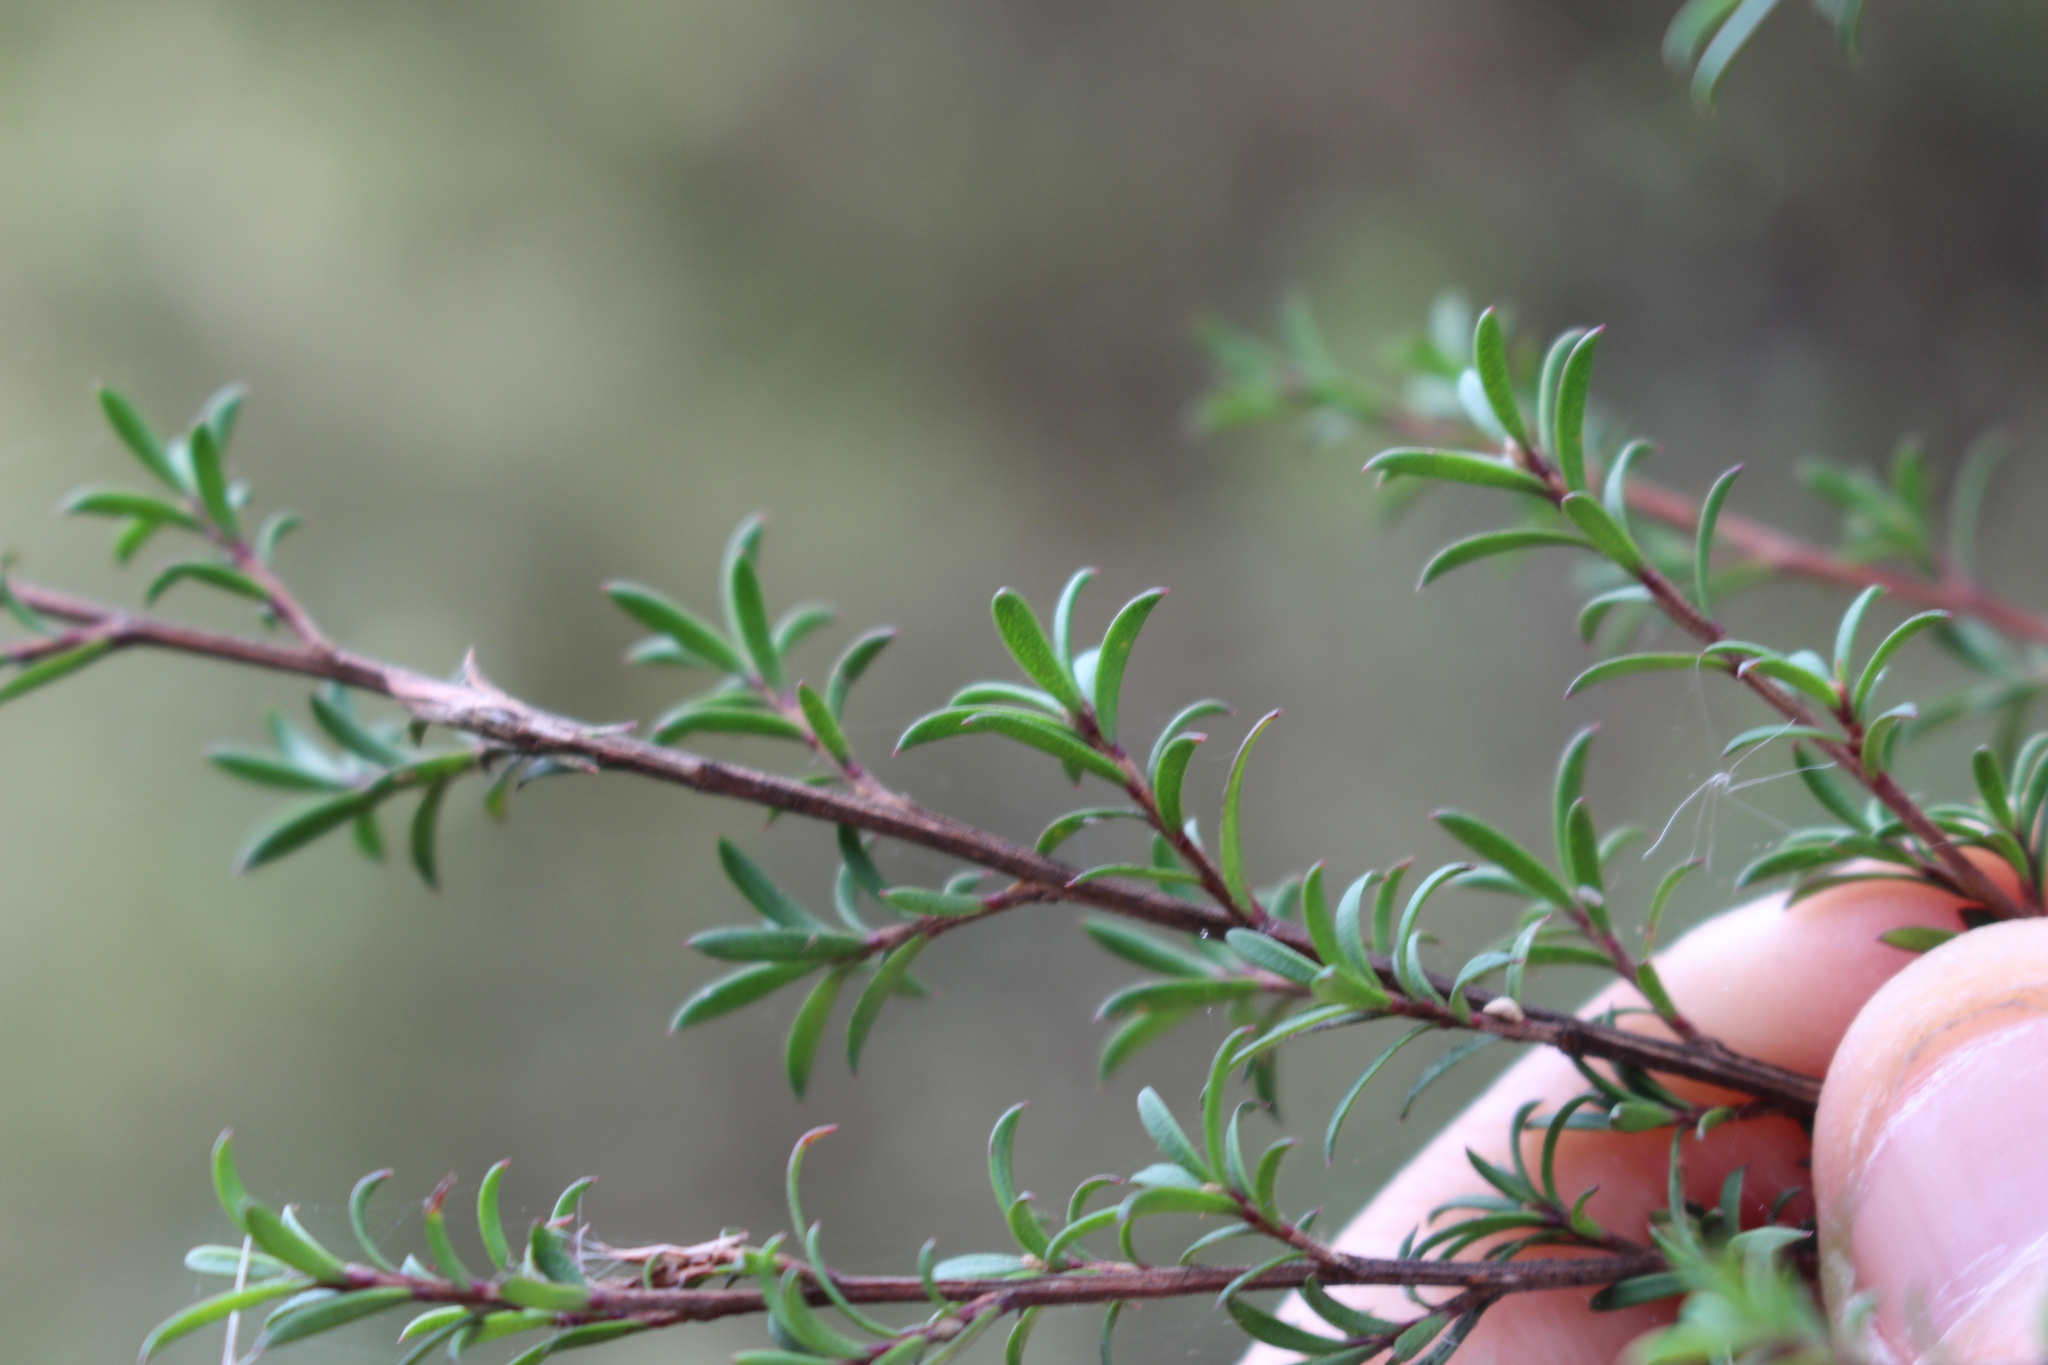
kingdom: Plantae
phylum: Tracheophyta
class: Magnoliopsida
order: Myrtales
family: Myrtaceae
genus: Kunzea
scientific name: Kunzea robusta
